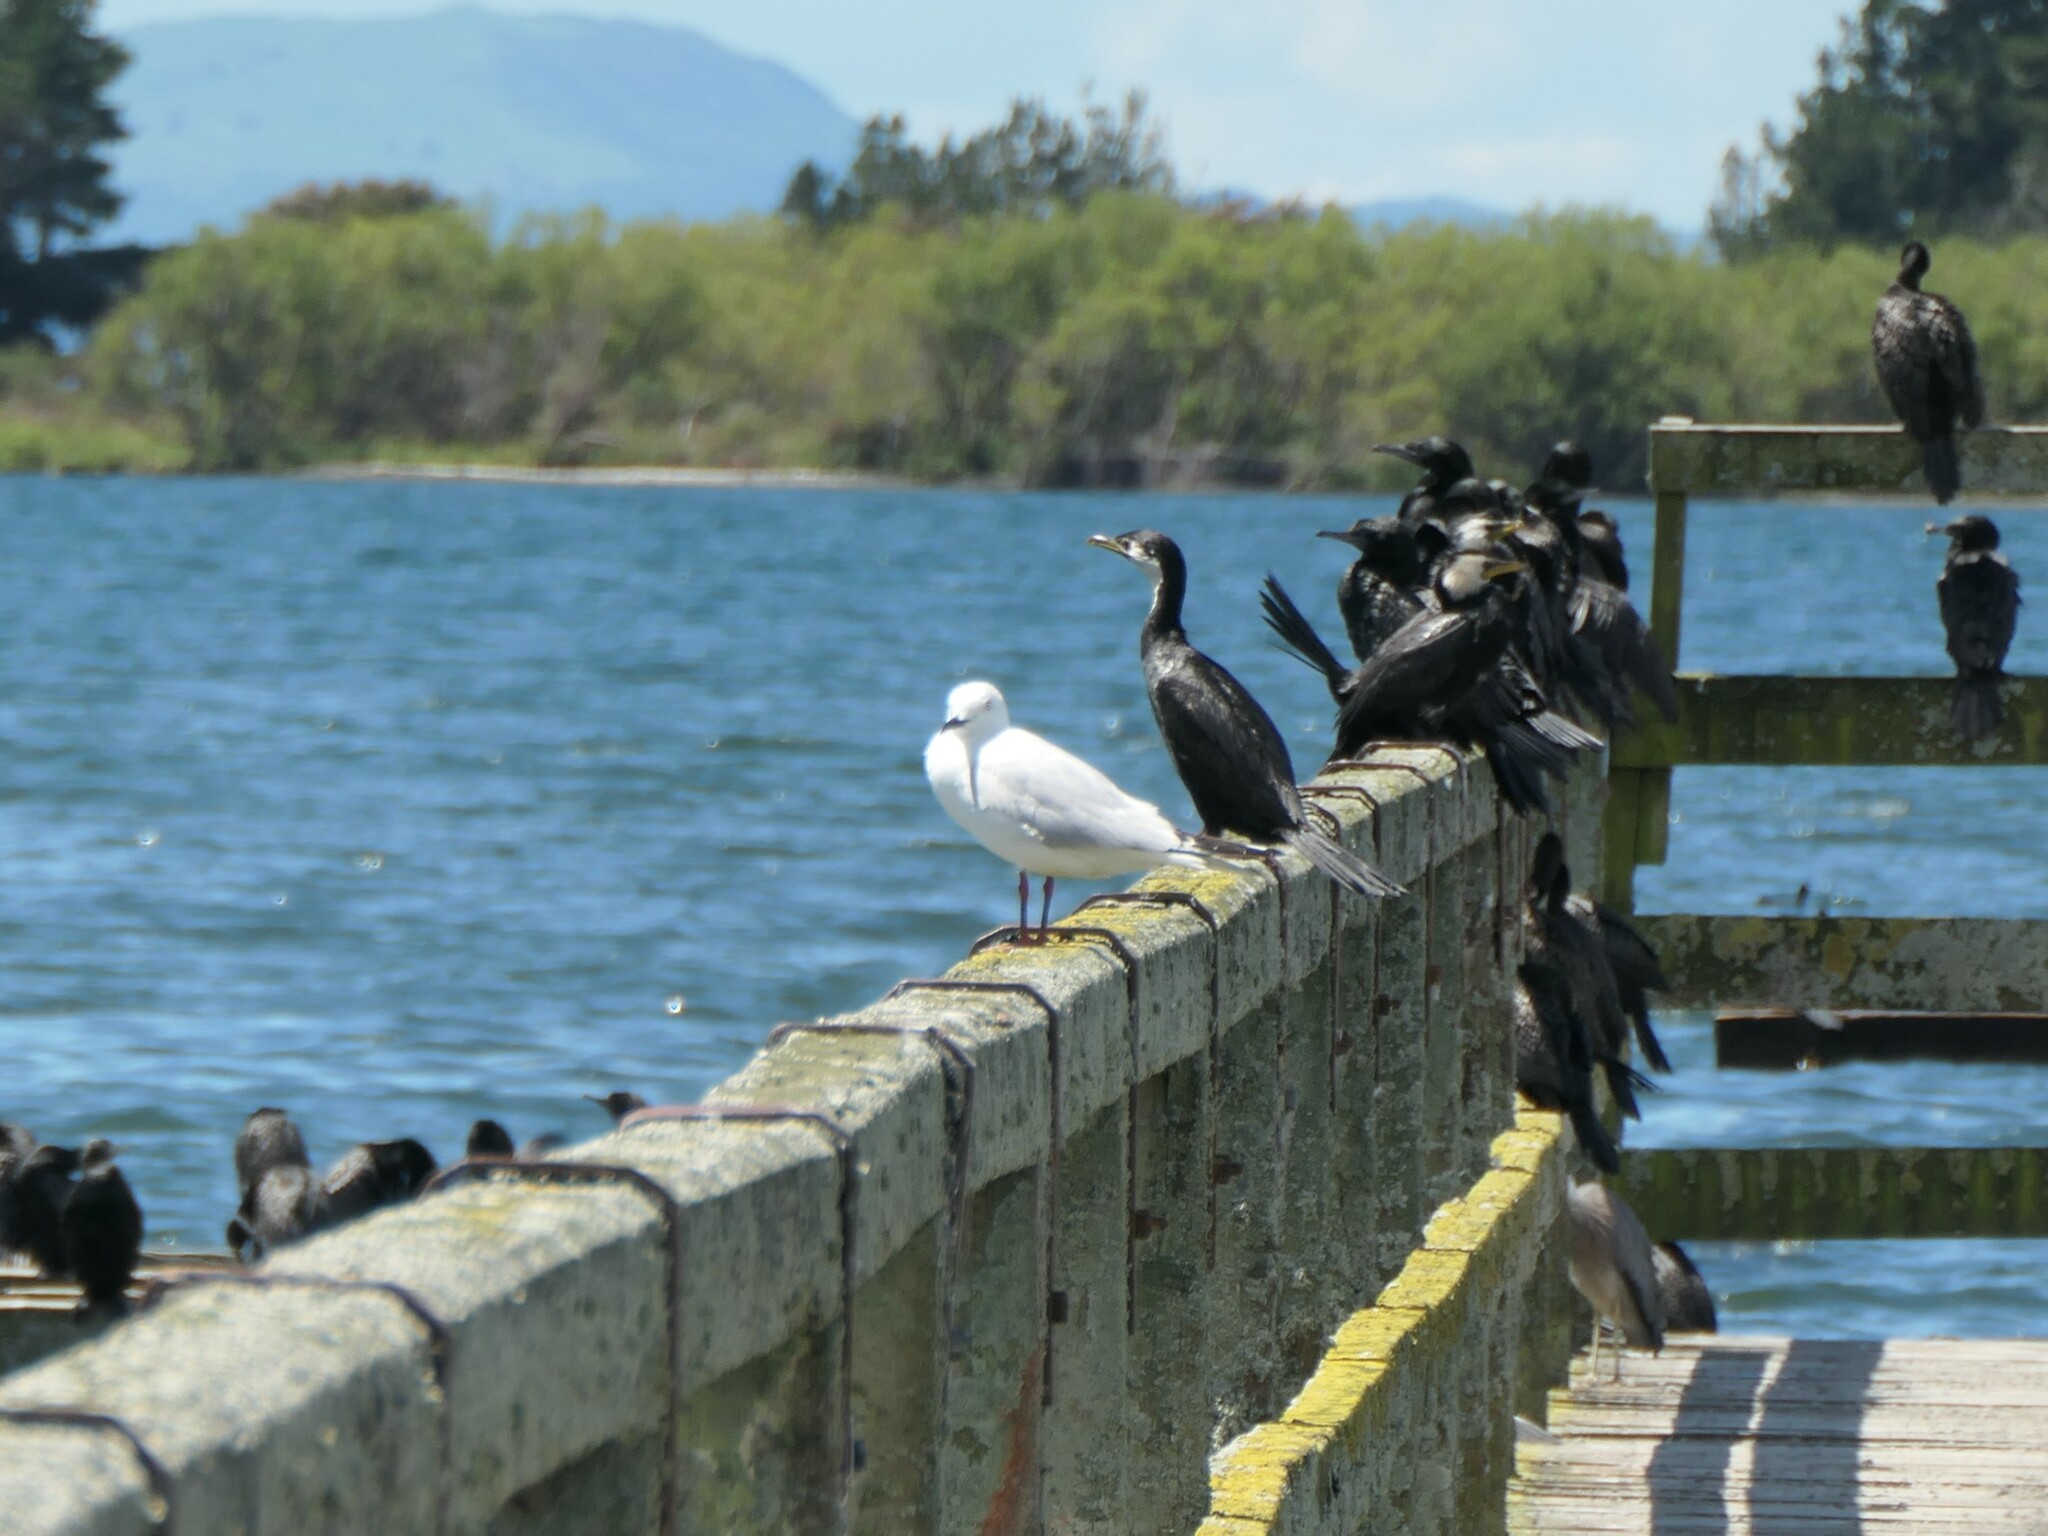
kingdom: Animalia
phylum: Chordata
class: Aves
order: Charadriiformes
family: Laridae
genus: Chroicocephalus
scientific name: Chroicocephalus bulleri
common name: Black-billed gull
